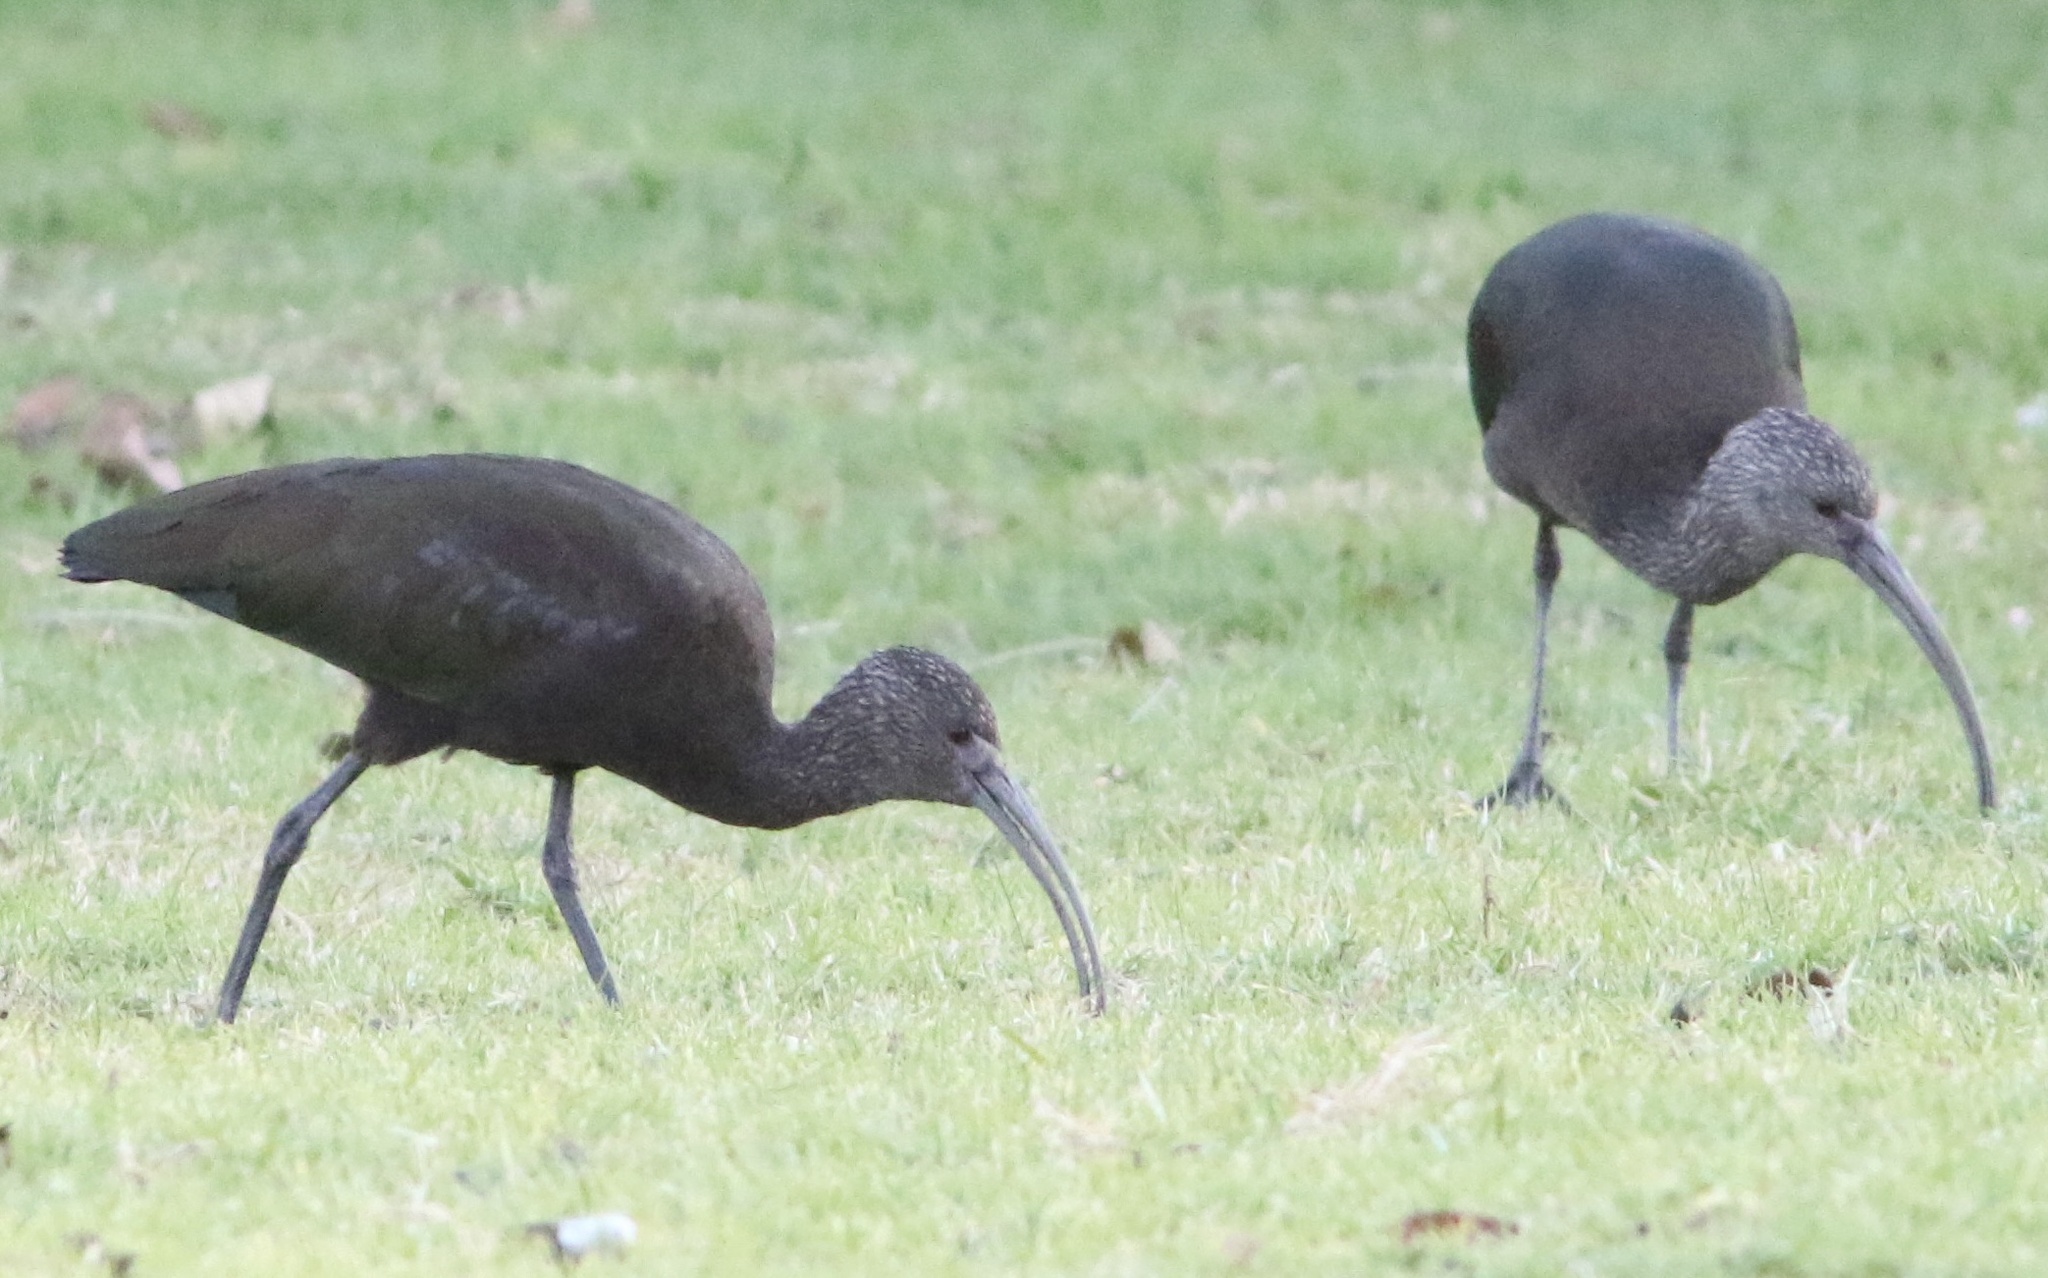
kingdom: Animalia
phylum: Chordata
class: Aves
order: Pelecaniformes
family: Threskiornithidae
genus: Plegadis
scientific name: Plegadis chihi
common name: White-faced ibis
